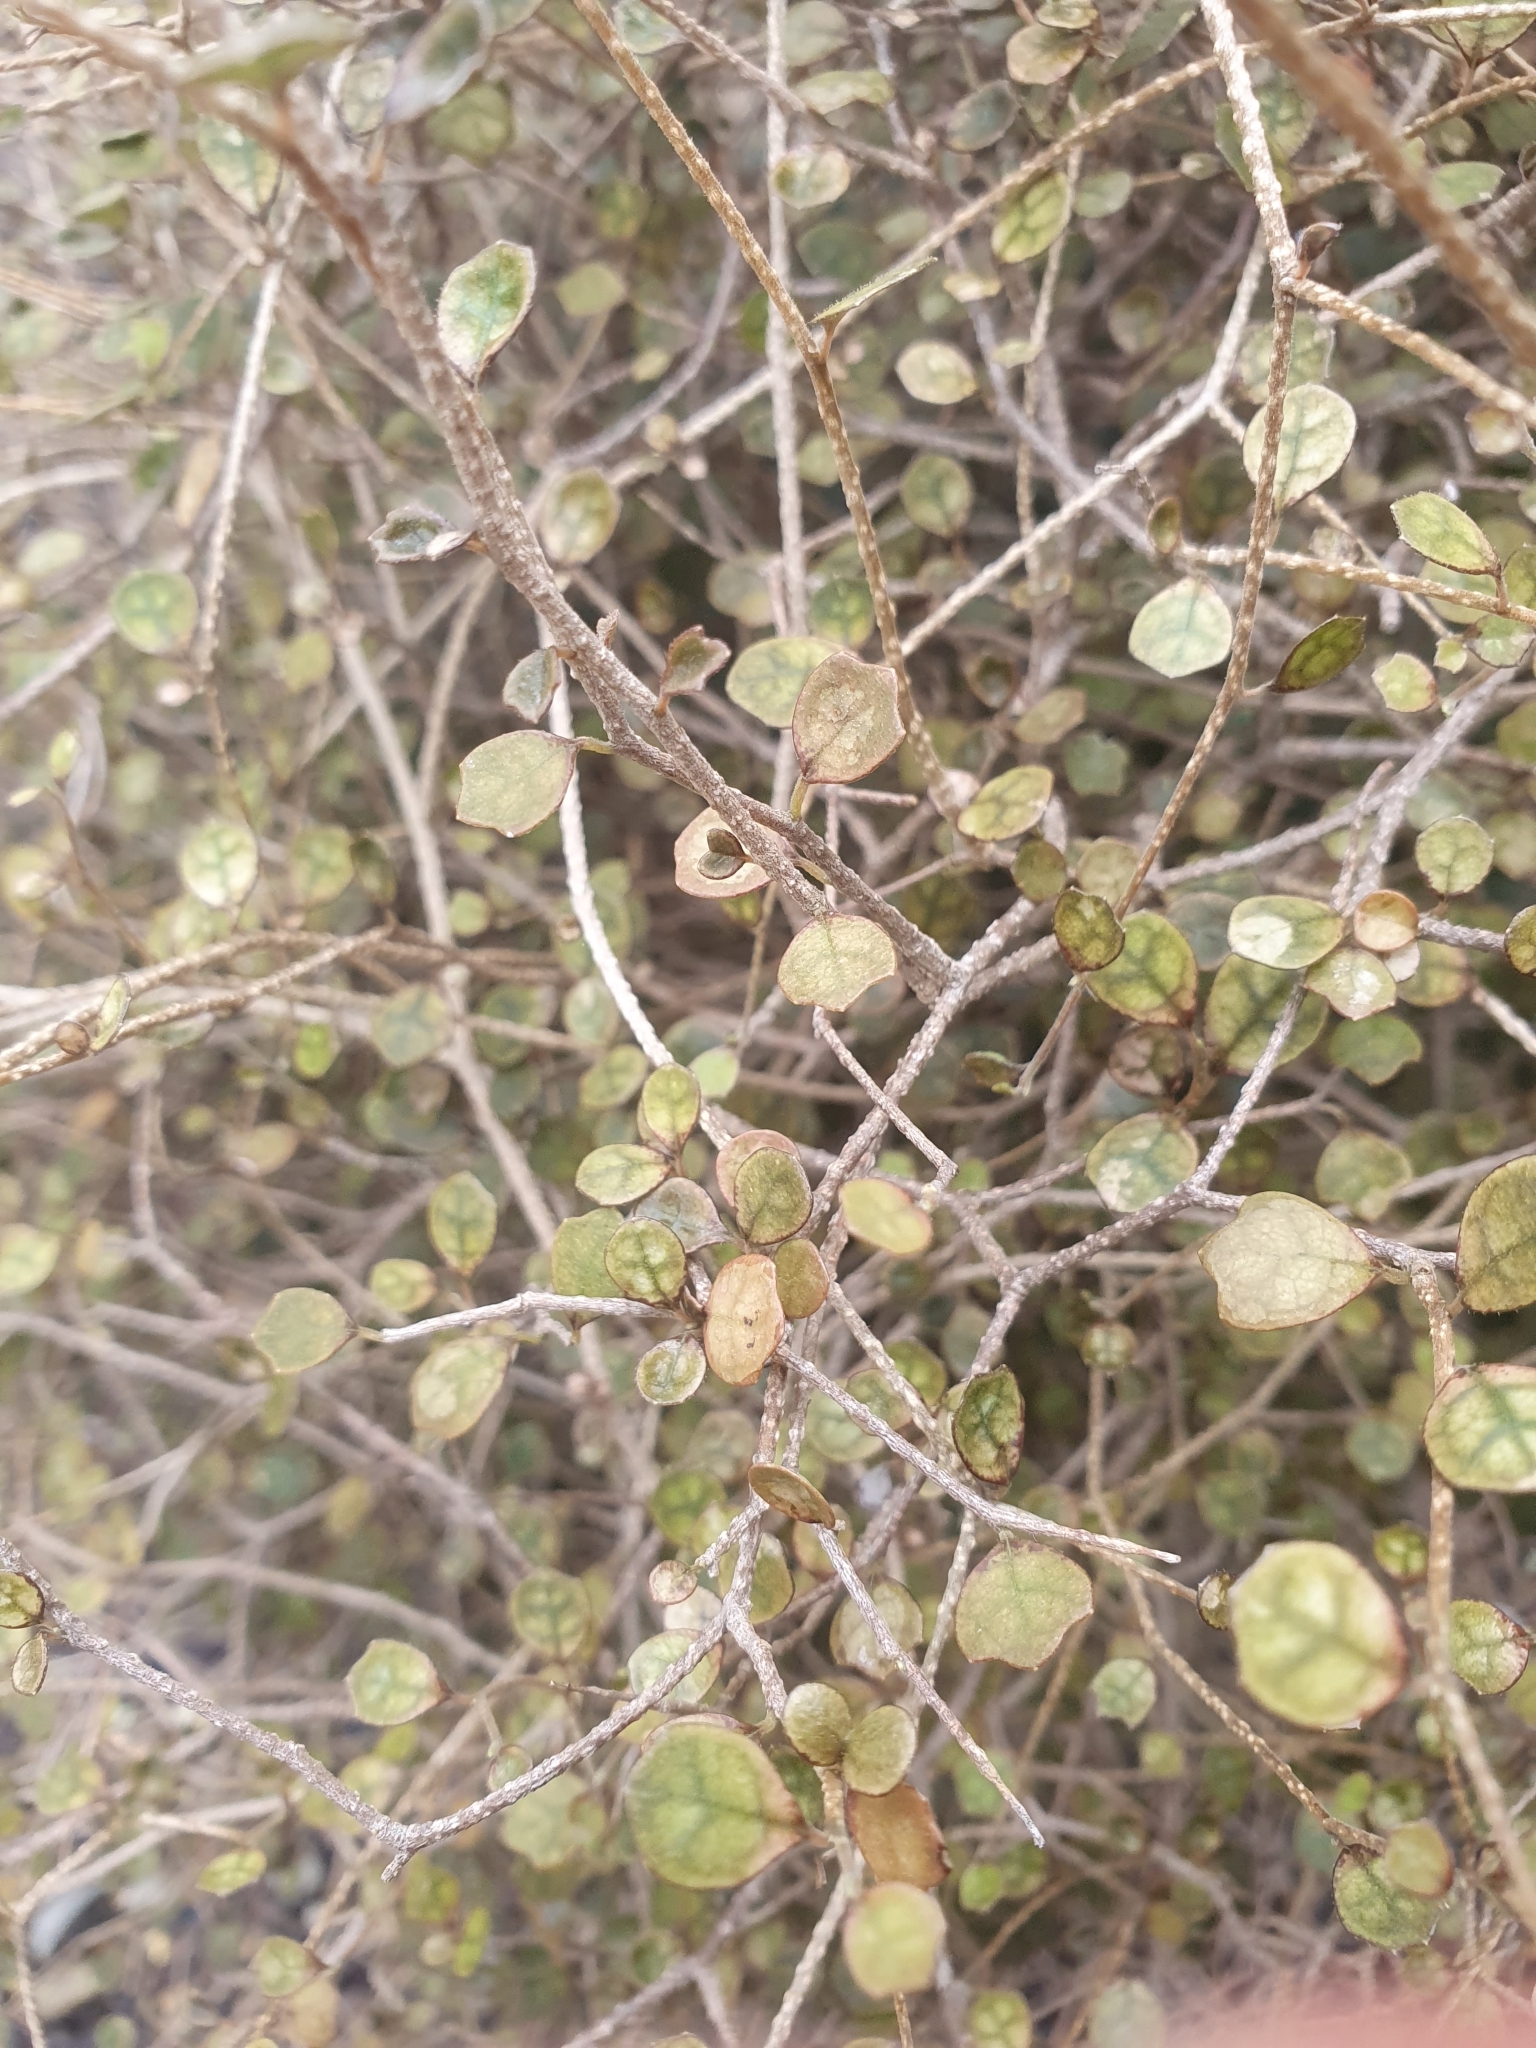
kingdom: Plantae
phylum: Tracheophyta
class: Magnoliopsida
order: Apiales
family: Pennantiaceae
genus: Pennantia
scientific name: Pennantia corymbosa
